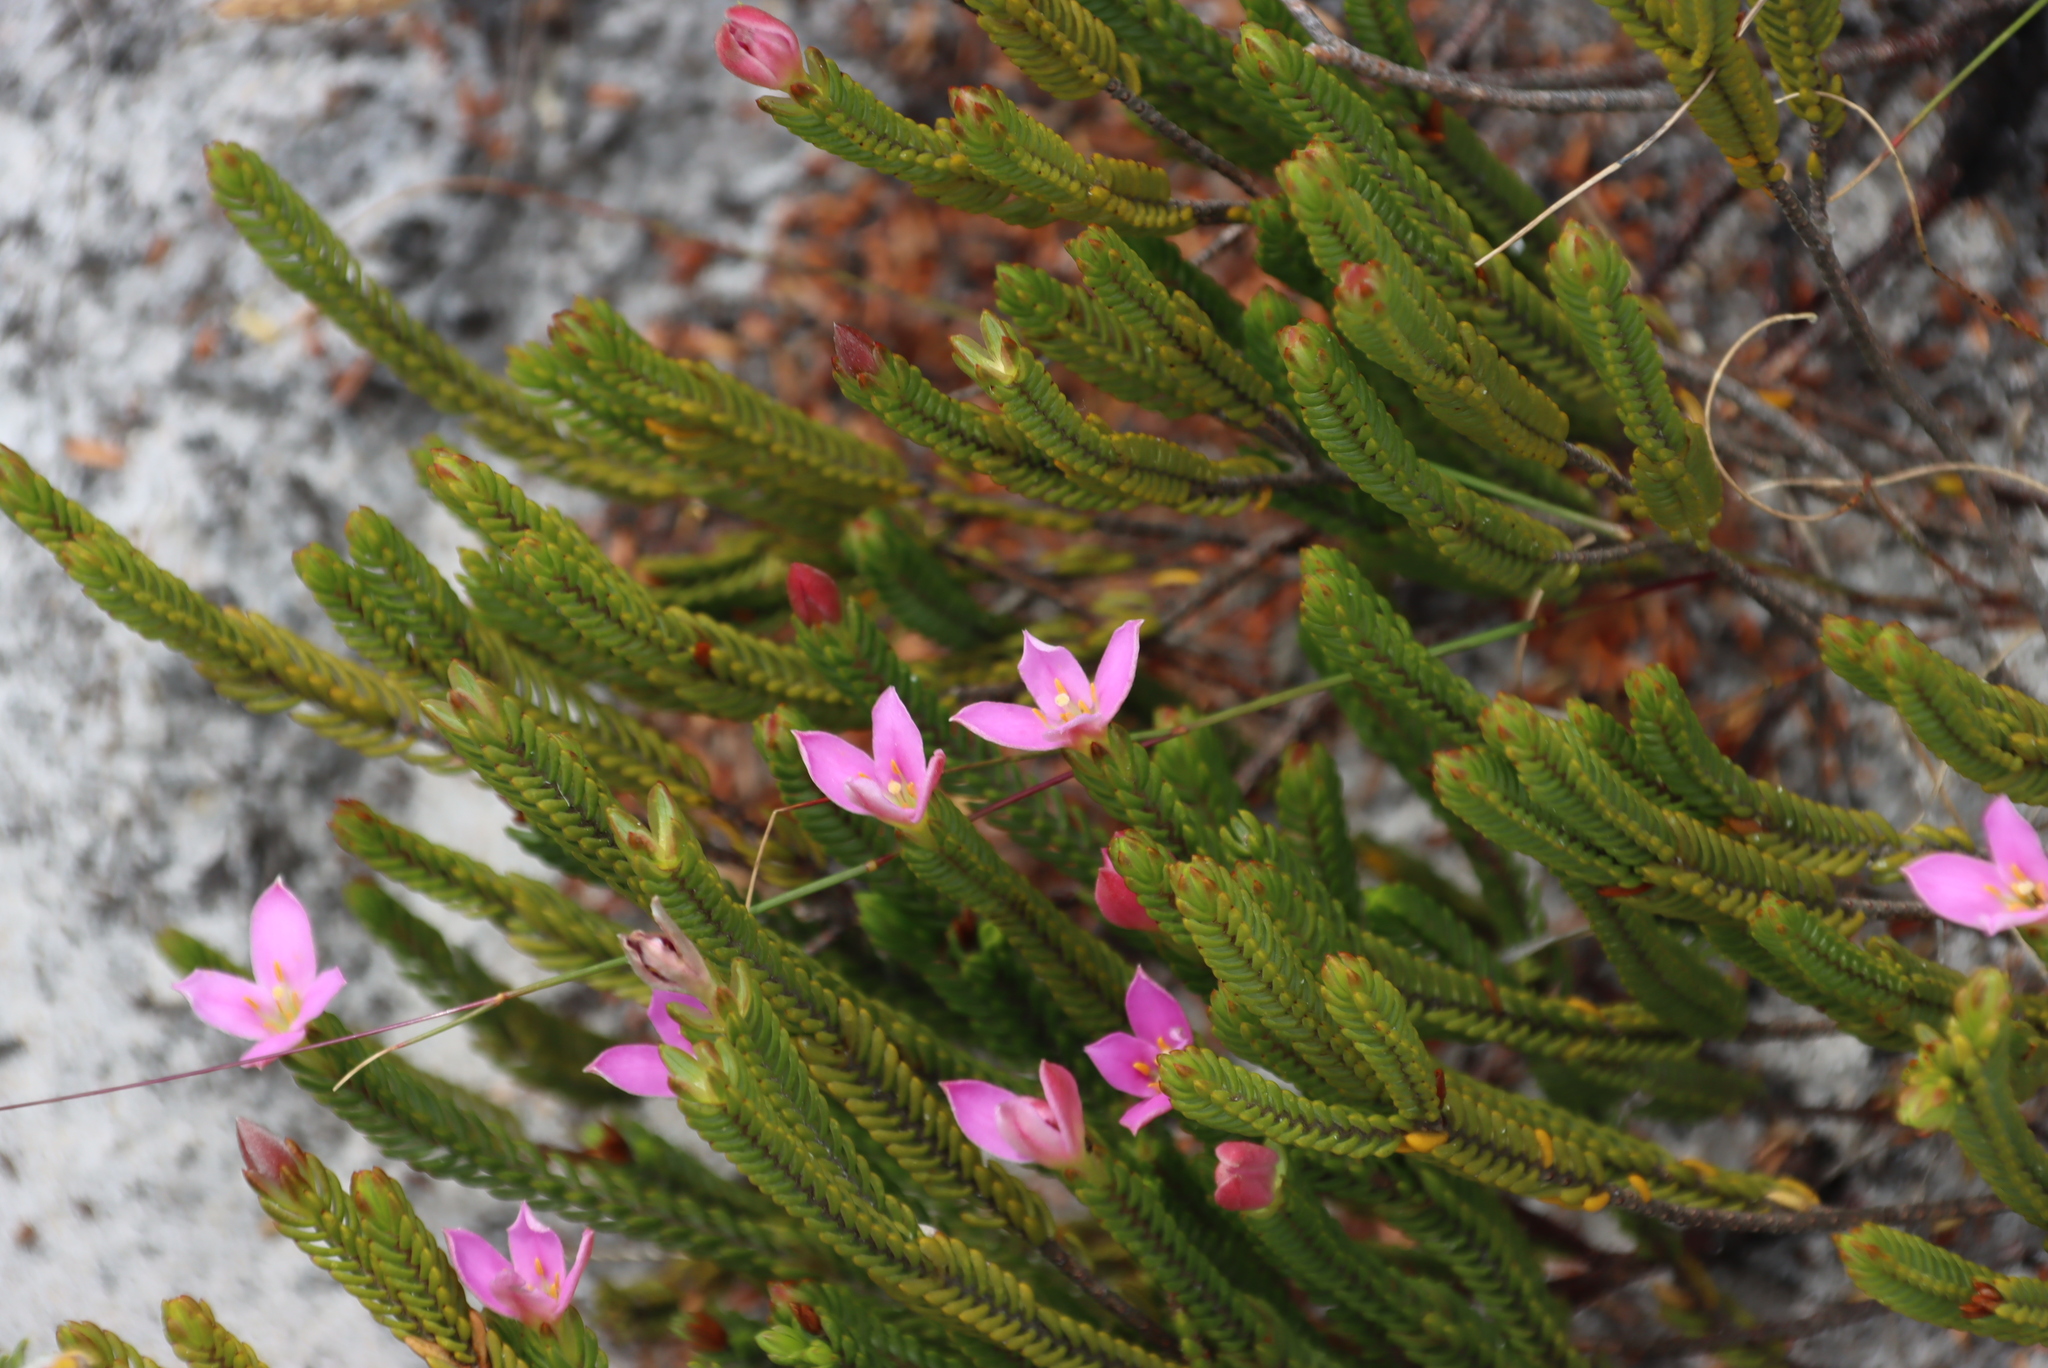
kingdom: Plantae
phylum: Tracheophyta
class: Magnoliopsida
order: Malvales
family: Thymelaeaceae
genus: Lachnaea
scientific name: Lachnaea grandiflora
